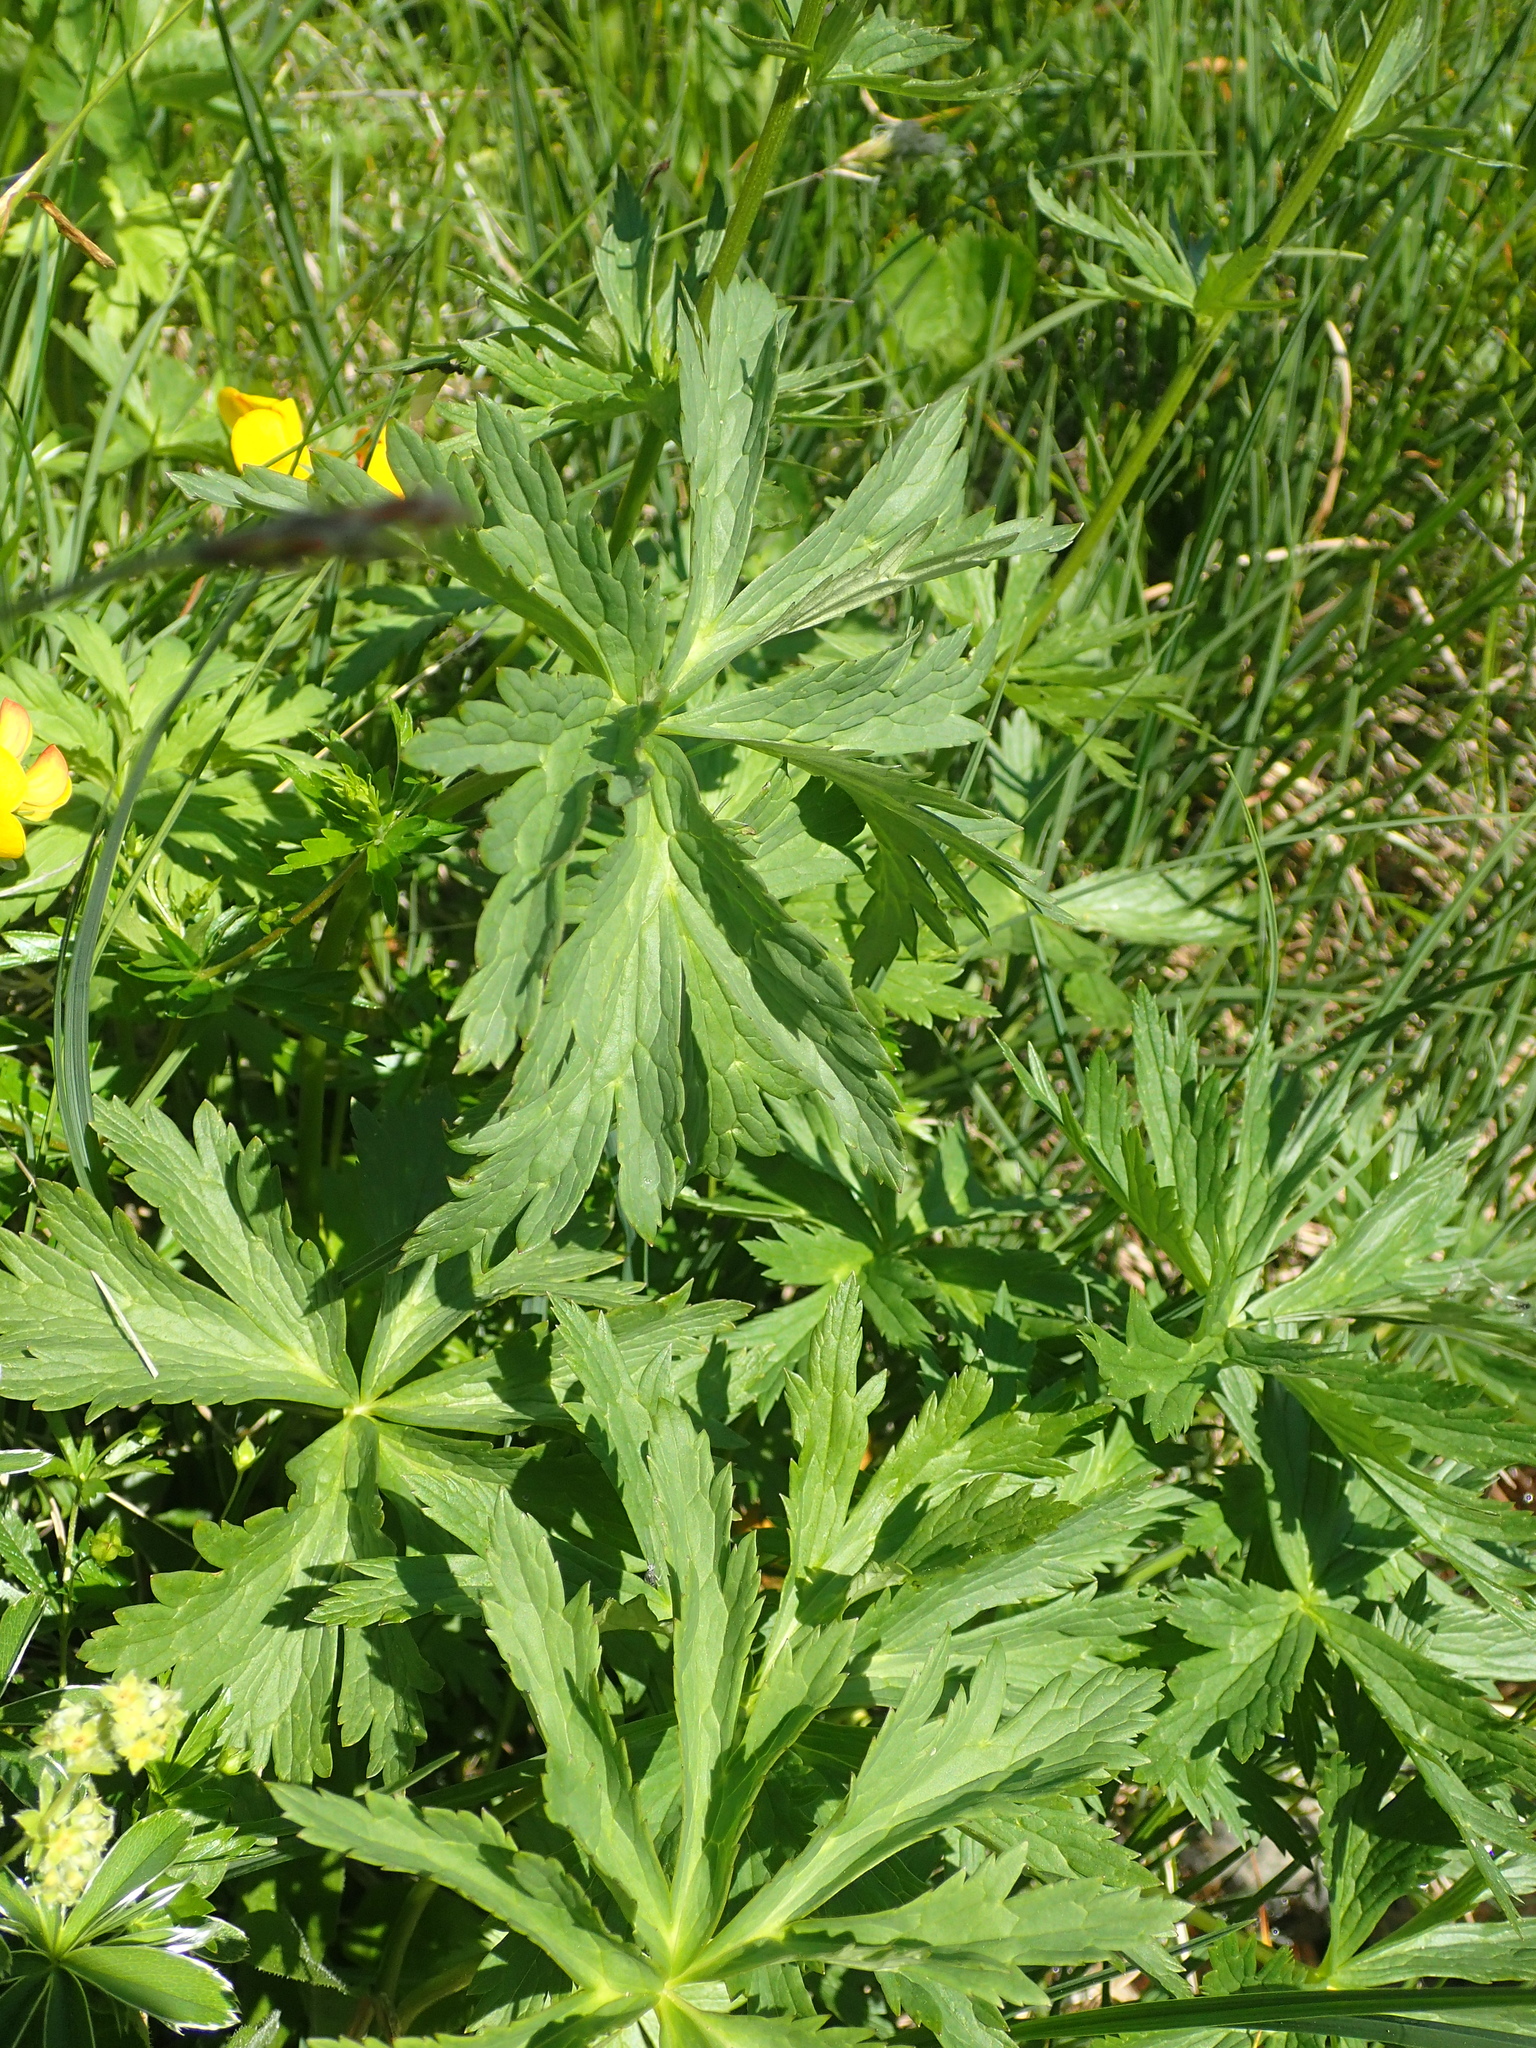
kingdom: Plantae
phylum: Tracheophyta
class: Magnoliopsida
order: Ranunculales
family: Ranunculaceae
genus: Trollius
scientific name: Trollius europaeus
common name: European globeflower
